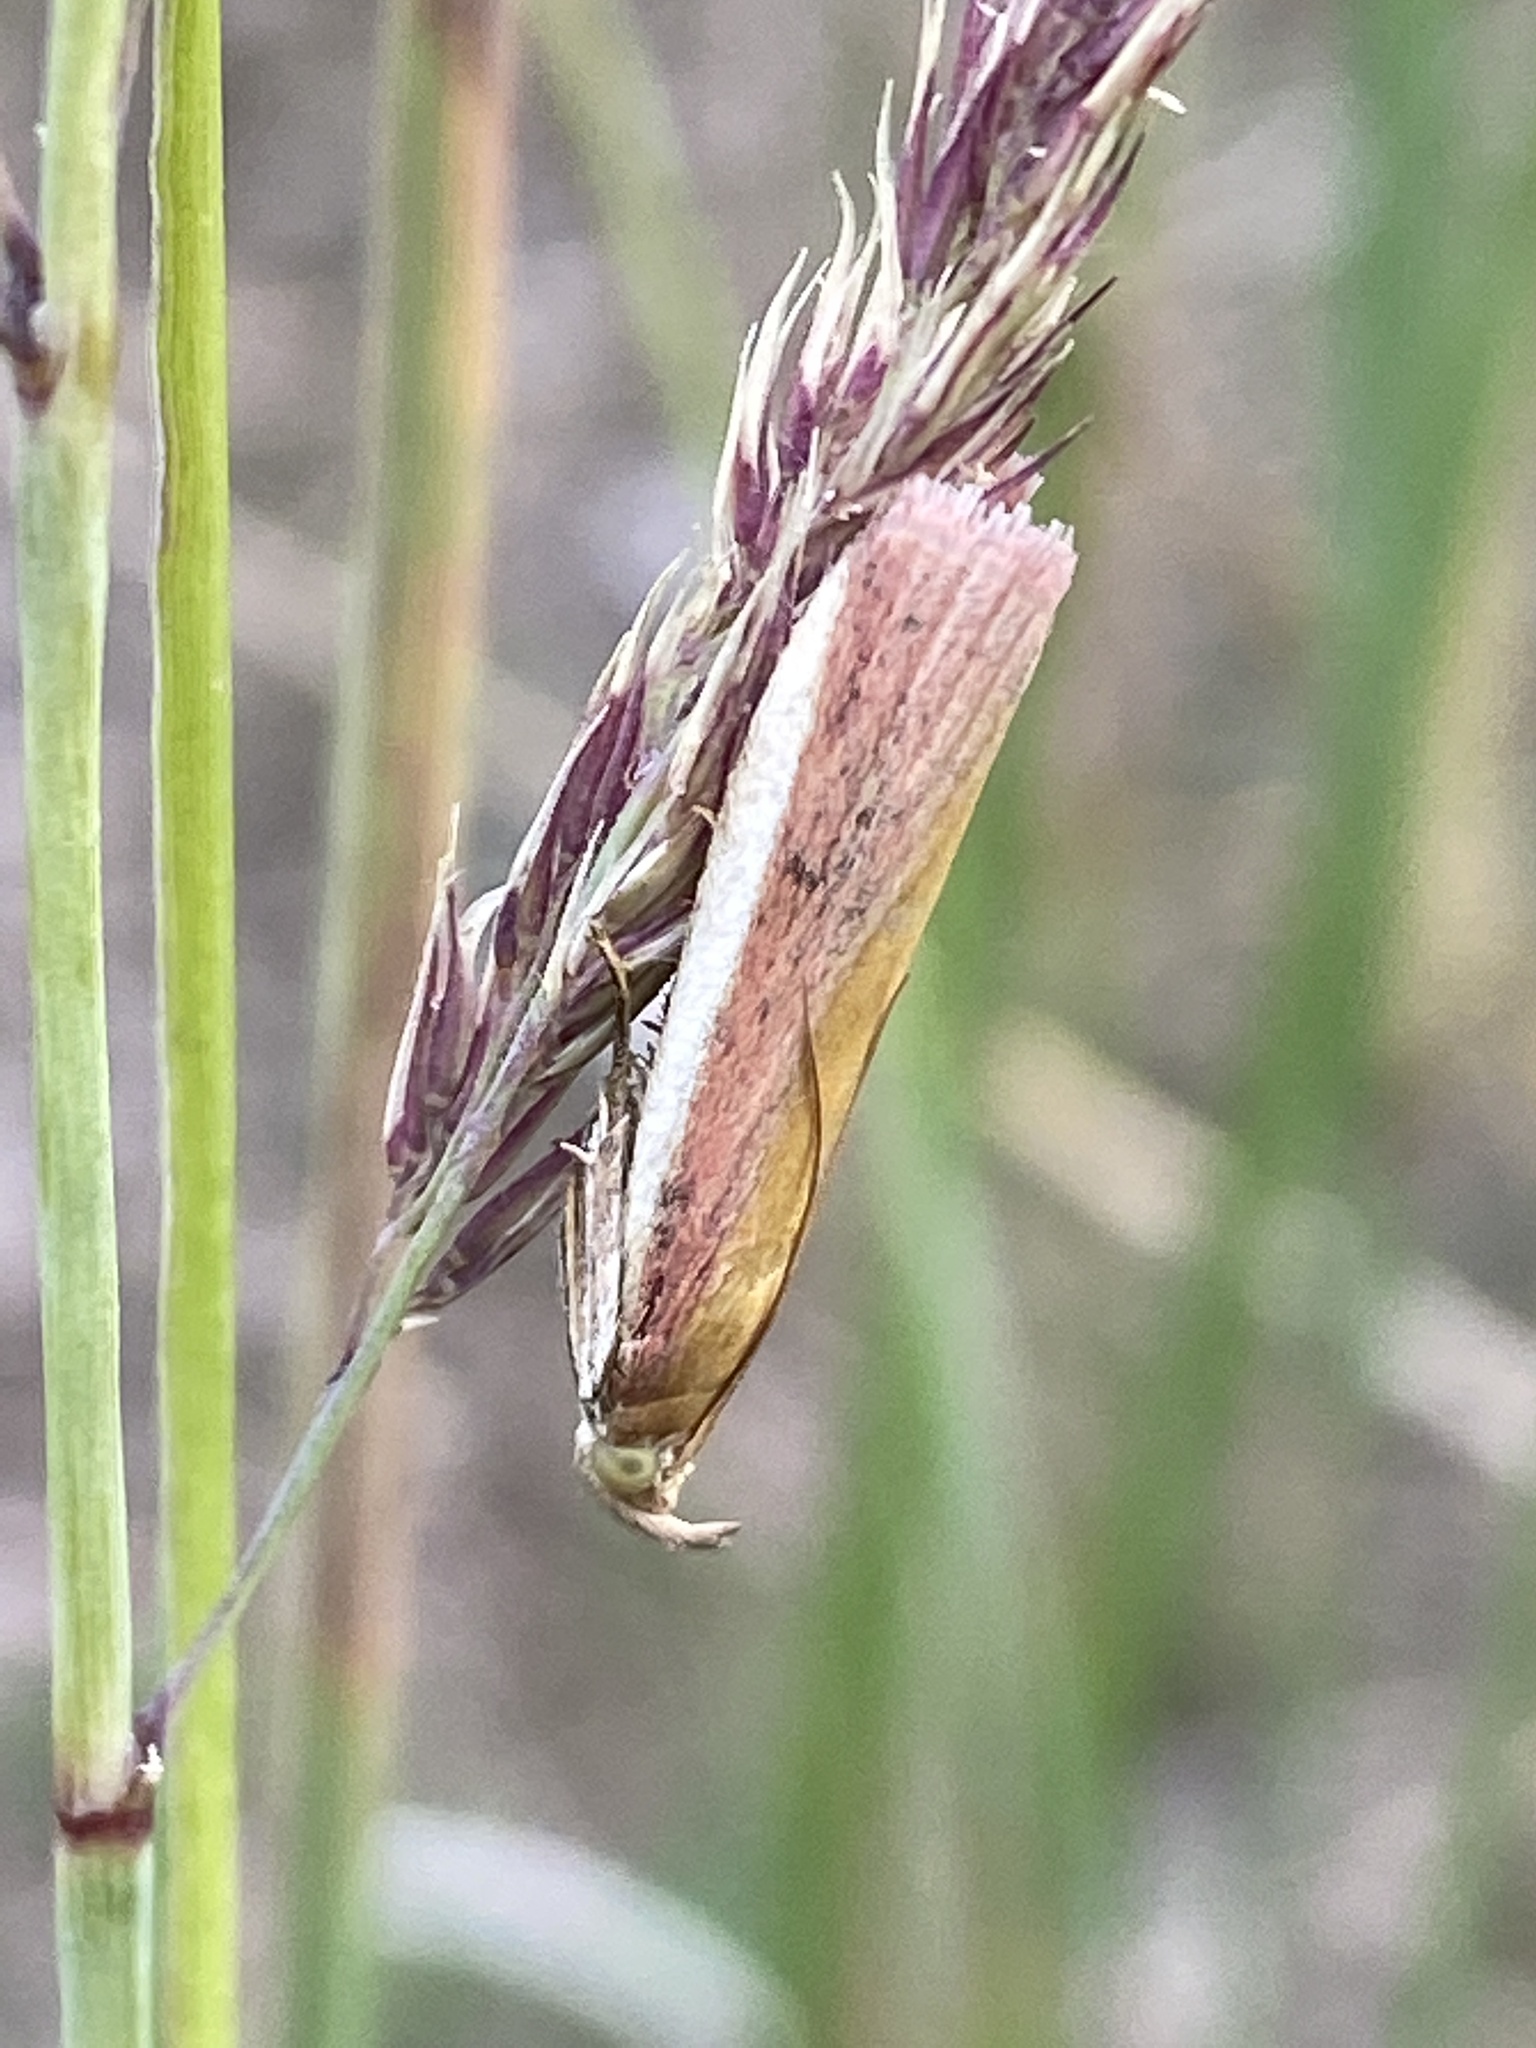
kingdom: Animalia
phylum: Arthropoda
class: Insecta
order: Lepidoptera
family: Pyralidae
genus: Oncocera
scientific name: Oncocera semirubella
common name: Rosy-striped knot-horn
